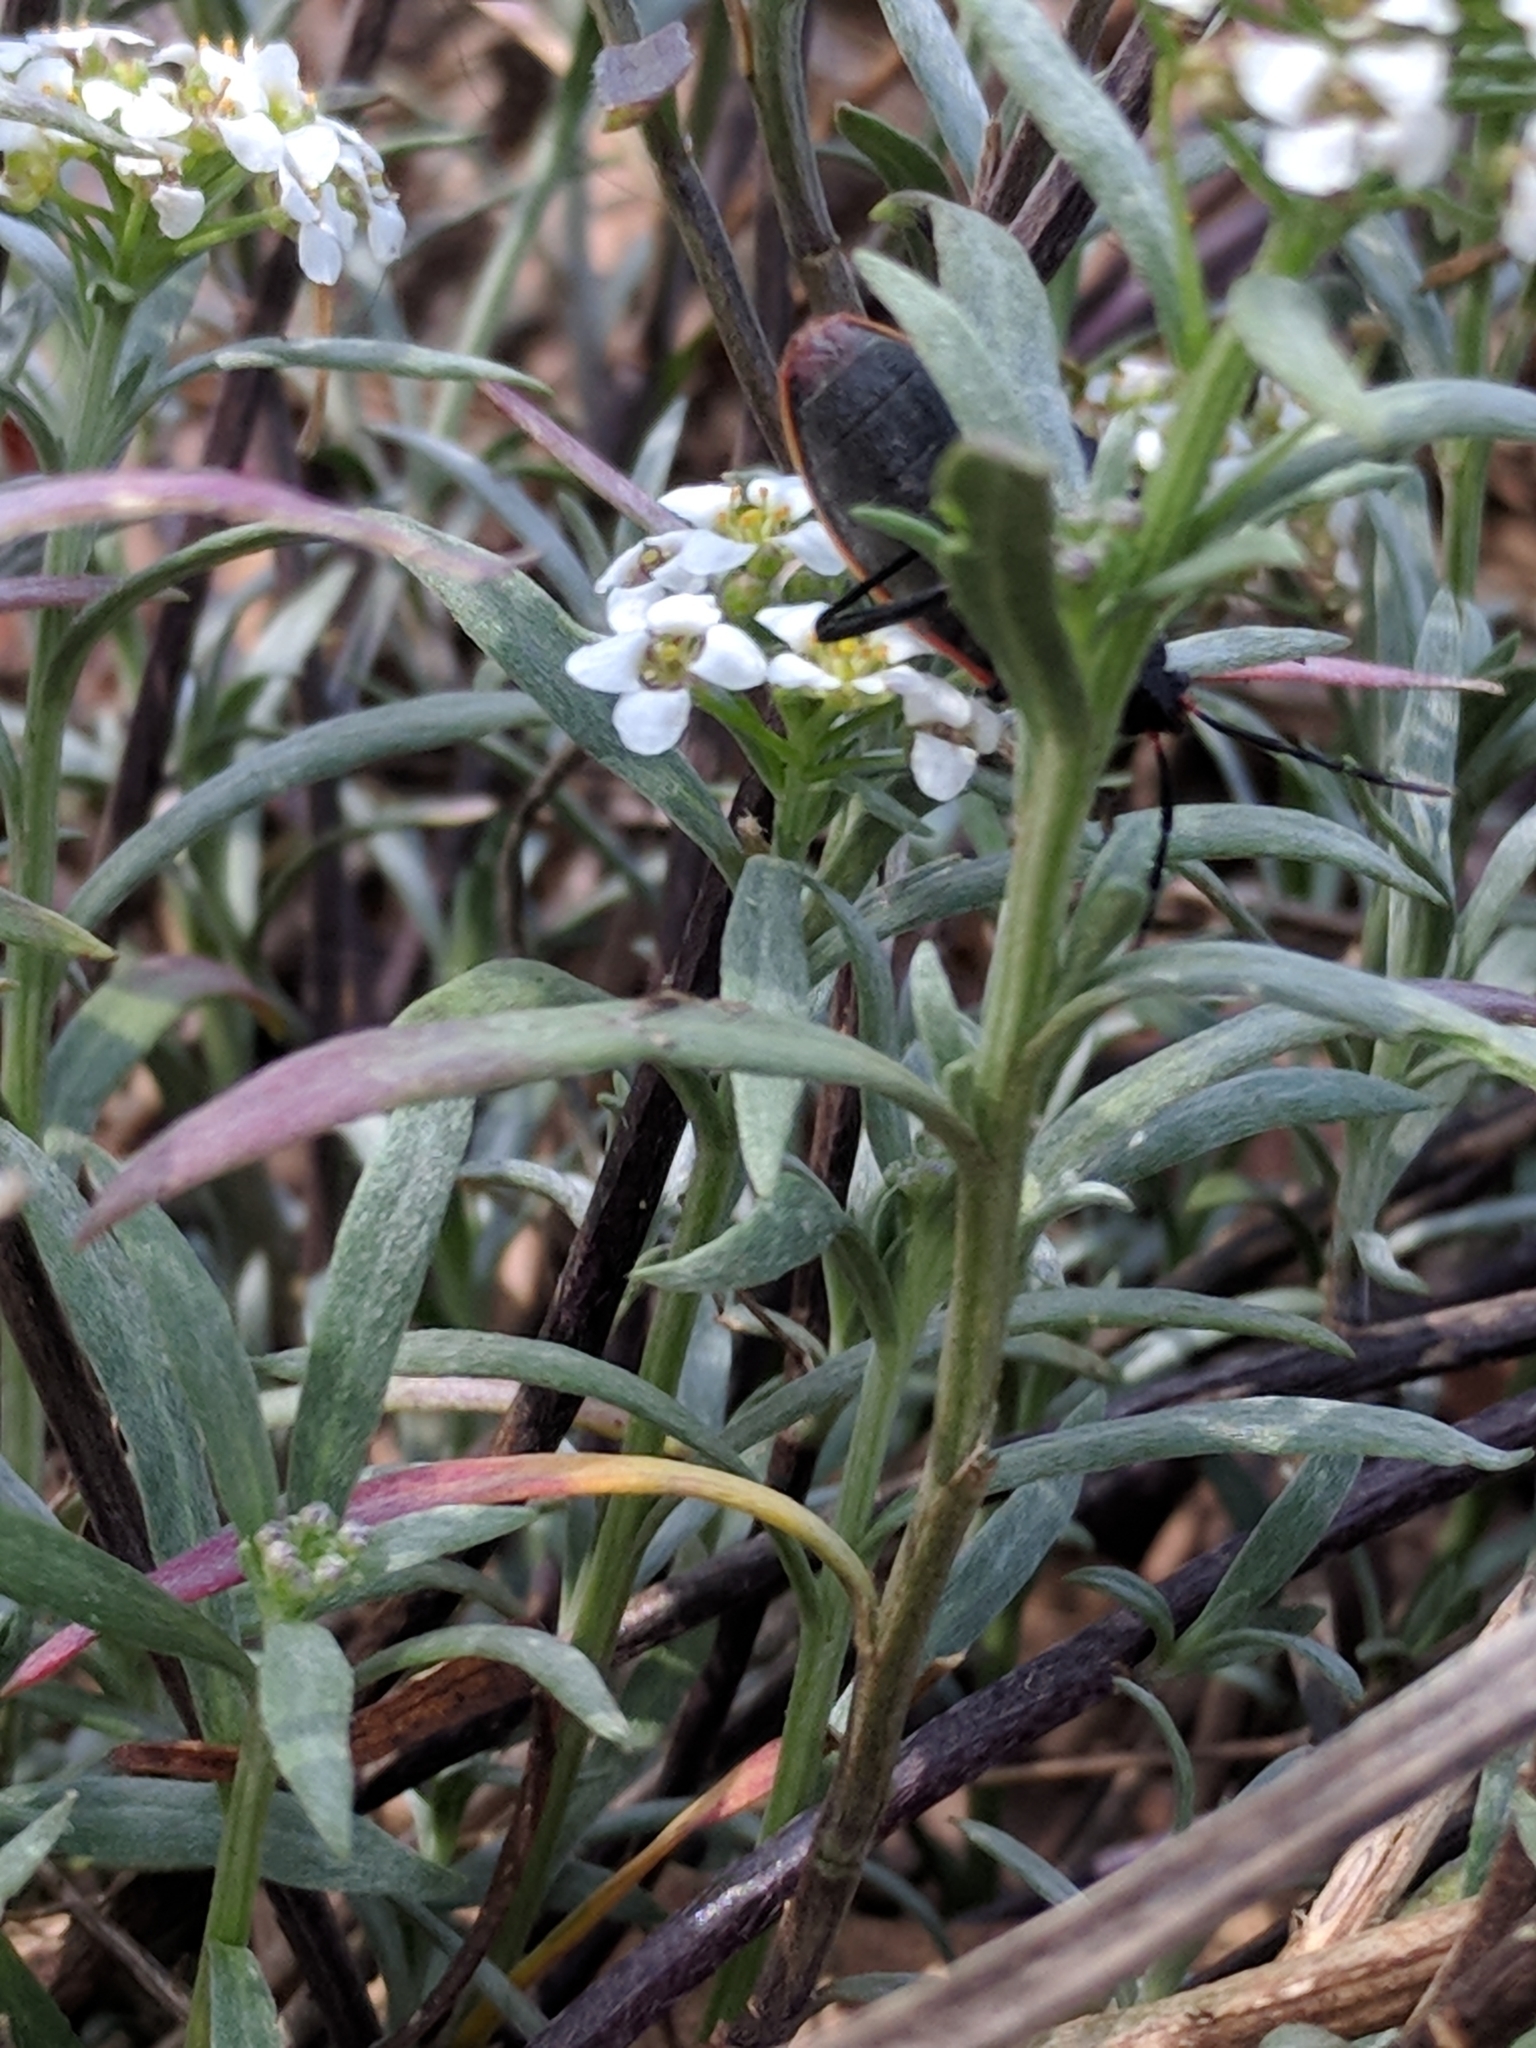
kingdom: Plantae
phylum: Tracheophyta
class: Magnoliopsida
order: Brassicales
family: Brassicaceae
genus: Lobularia
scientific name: Lobularia maritima
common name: Sweet alison
